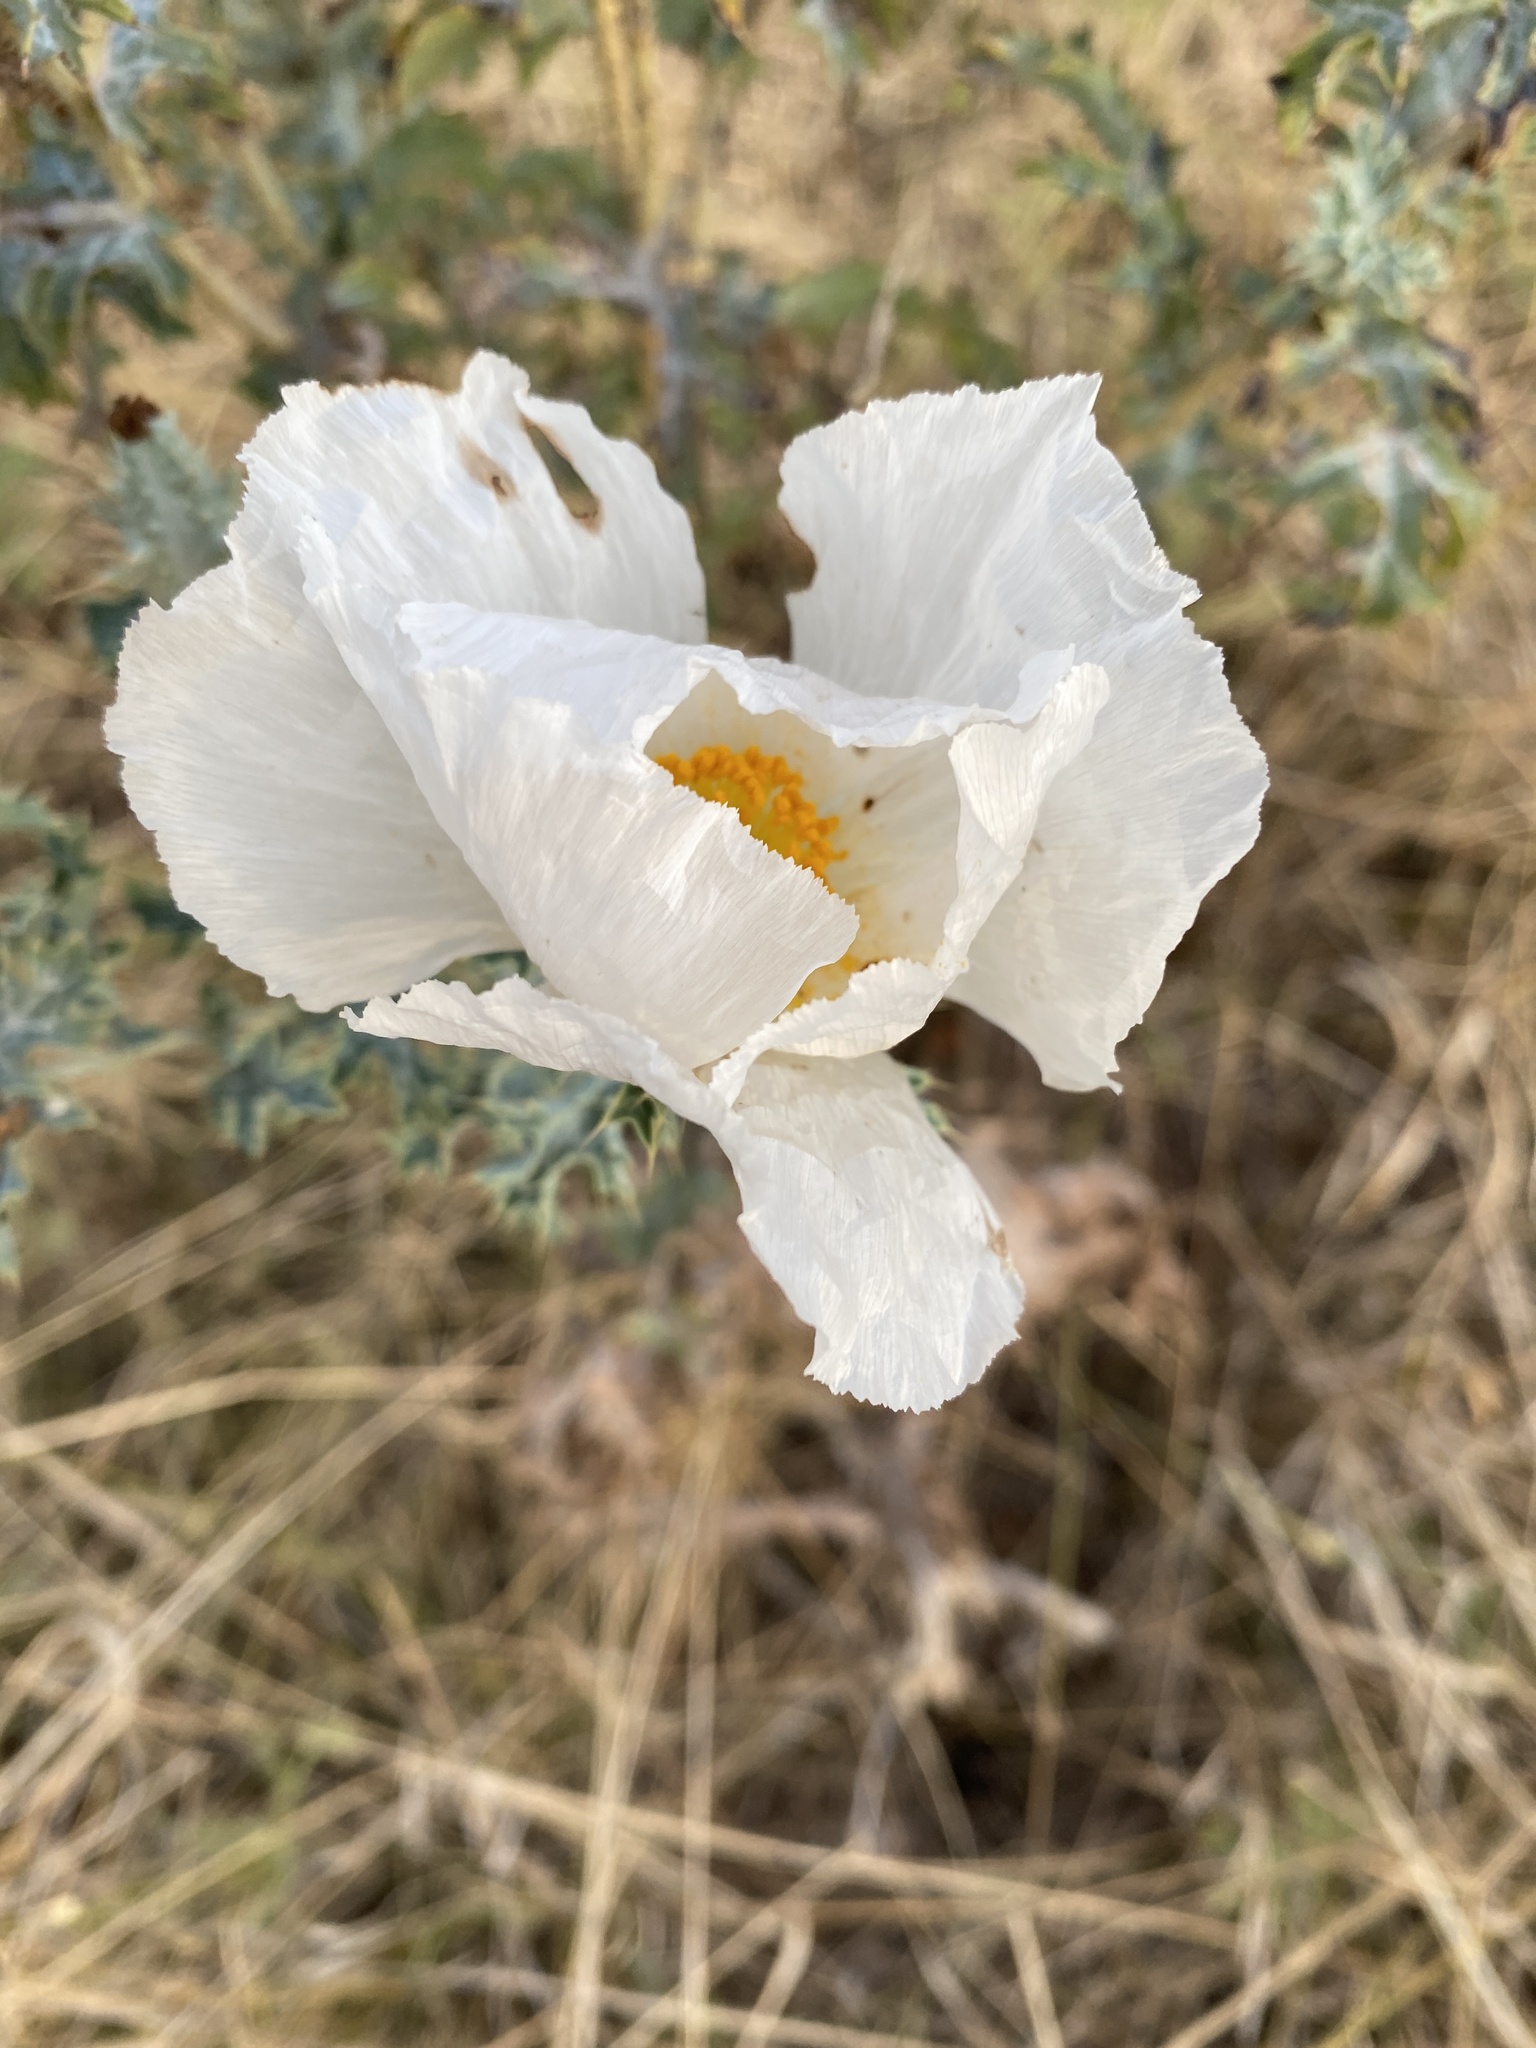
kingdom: Plantae
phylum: Tracheophyta
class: Magnoliopsida
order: Ranunculales
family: Papaveraceae
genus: Argemone
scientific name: Argemone albiflora
